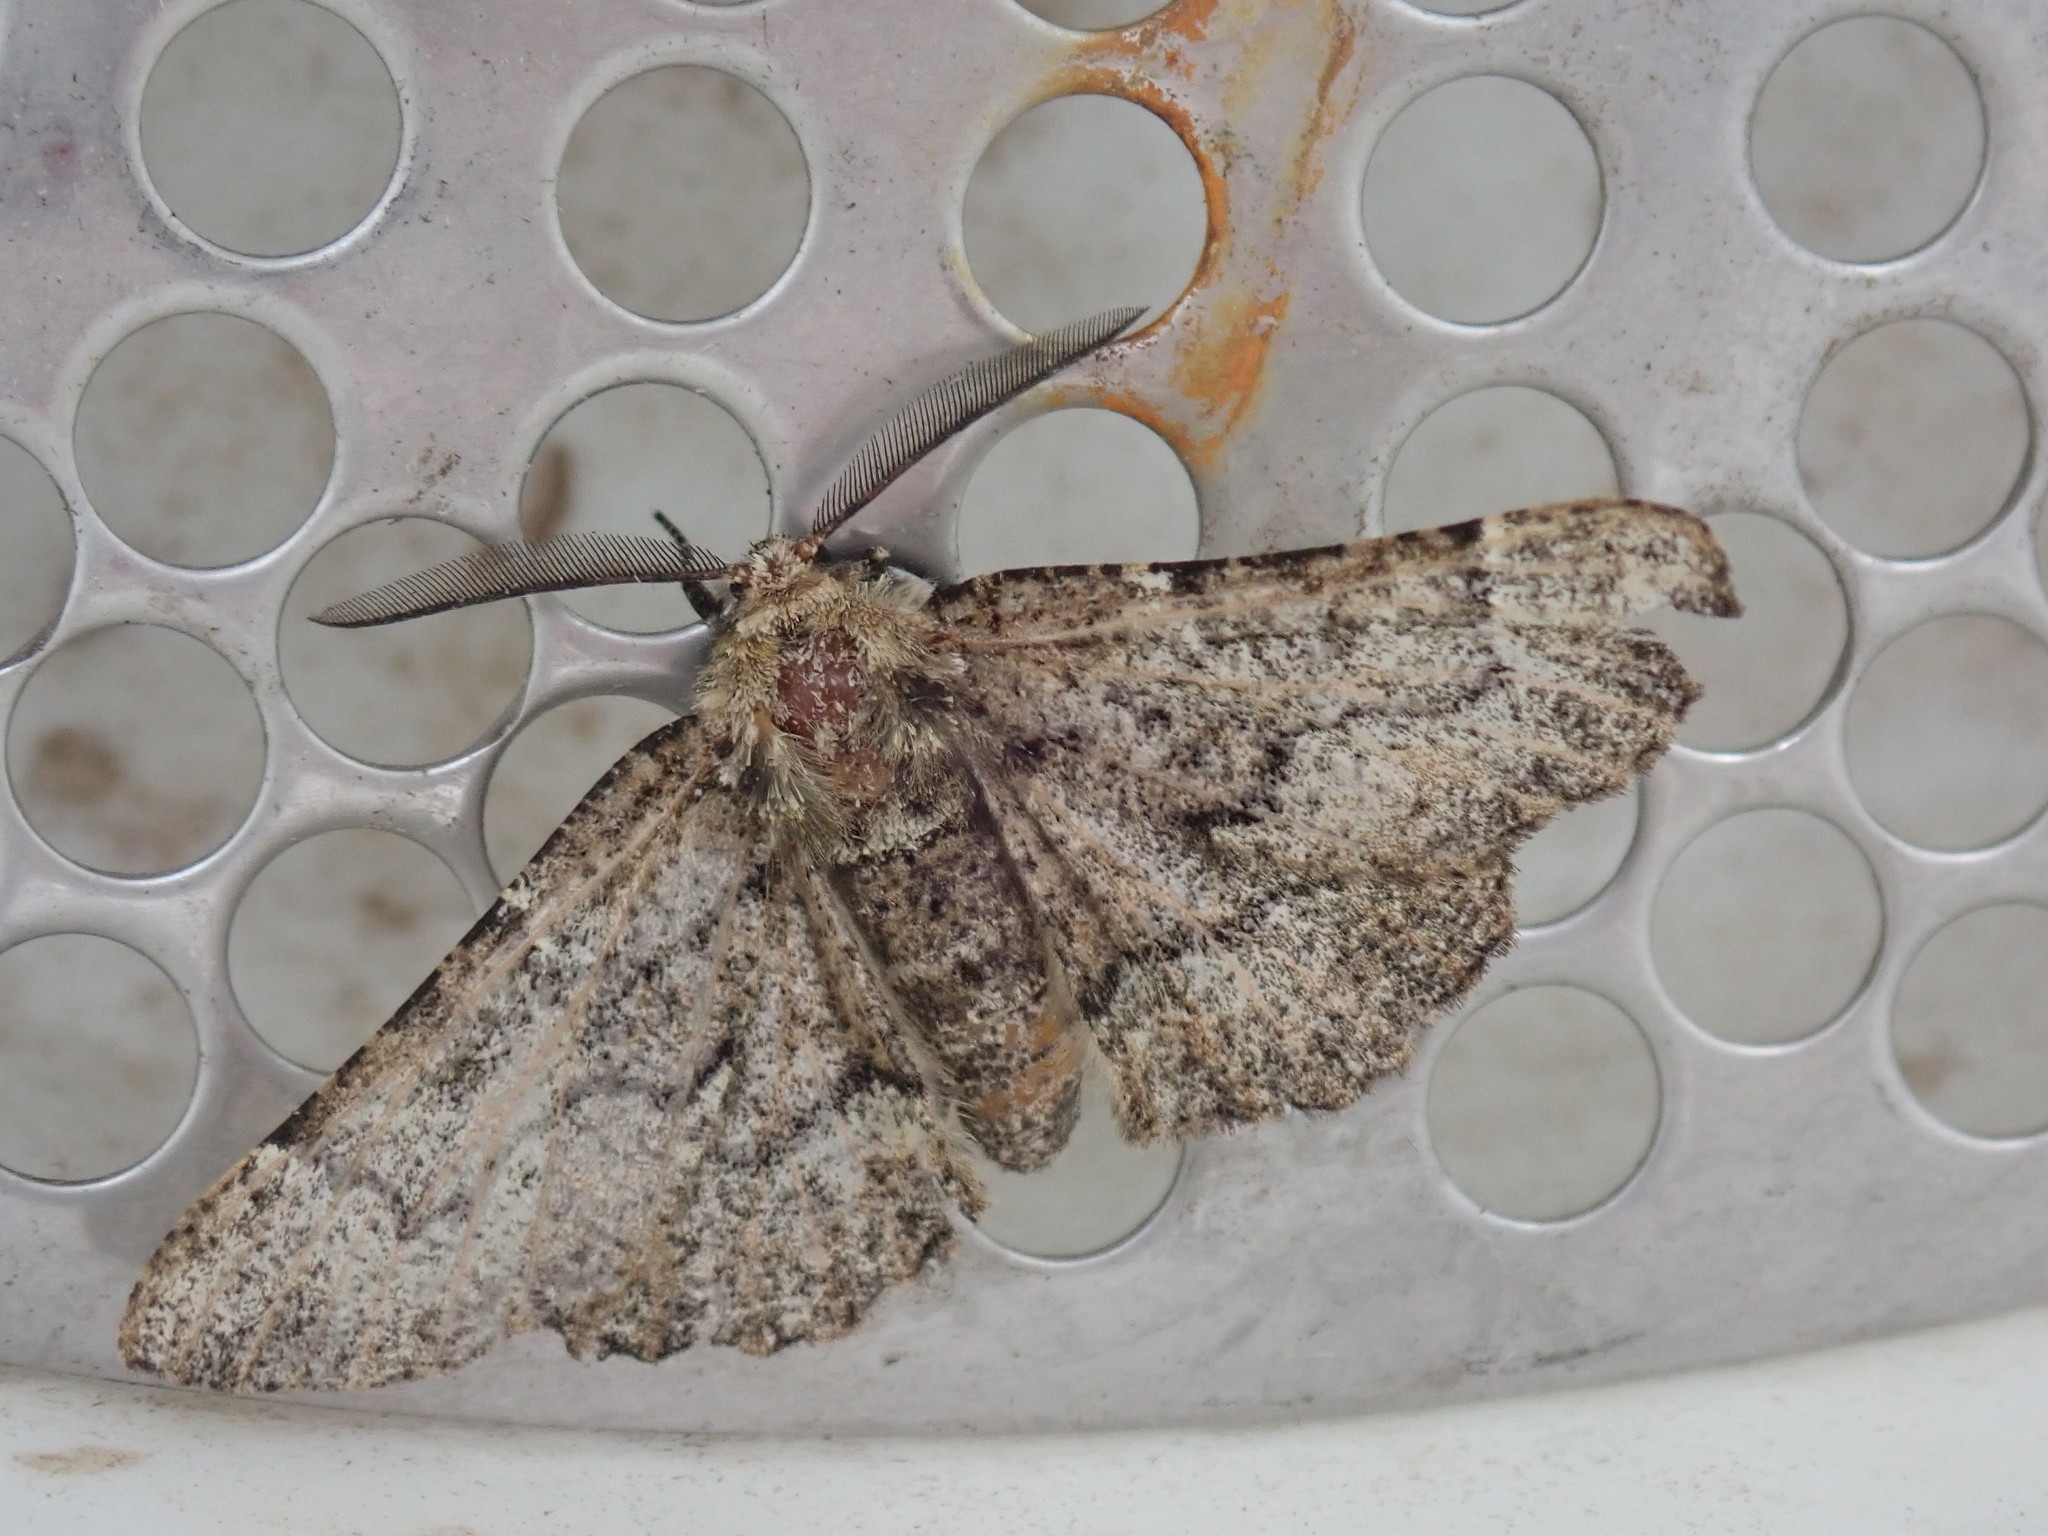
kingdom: Animalia
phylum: Arthropoda
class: Insecta
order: Lepidoptera
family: Geometridae
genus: Phaeoura
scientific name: Phaeoura quernaria
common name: Oak beauty
